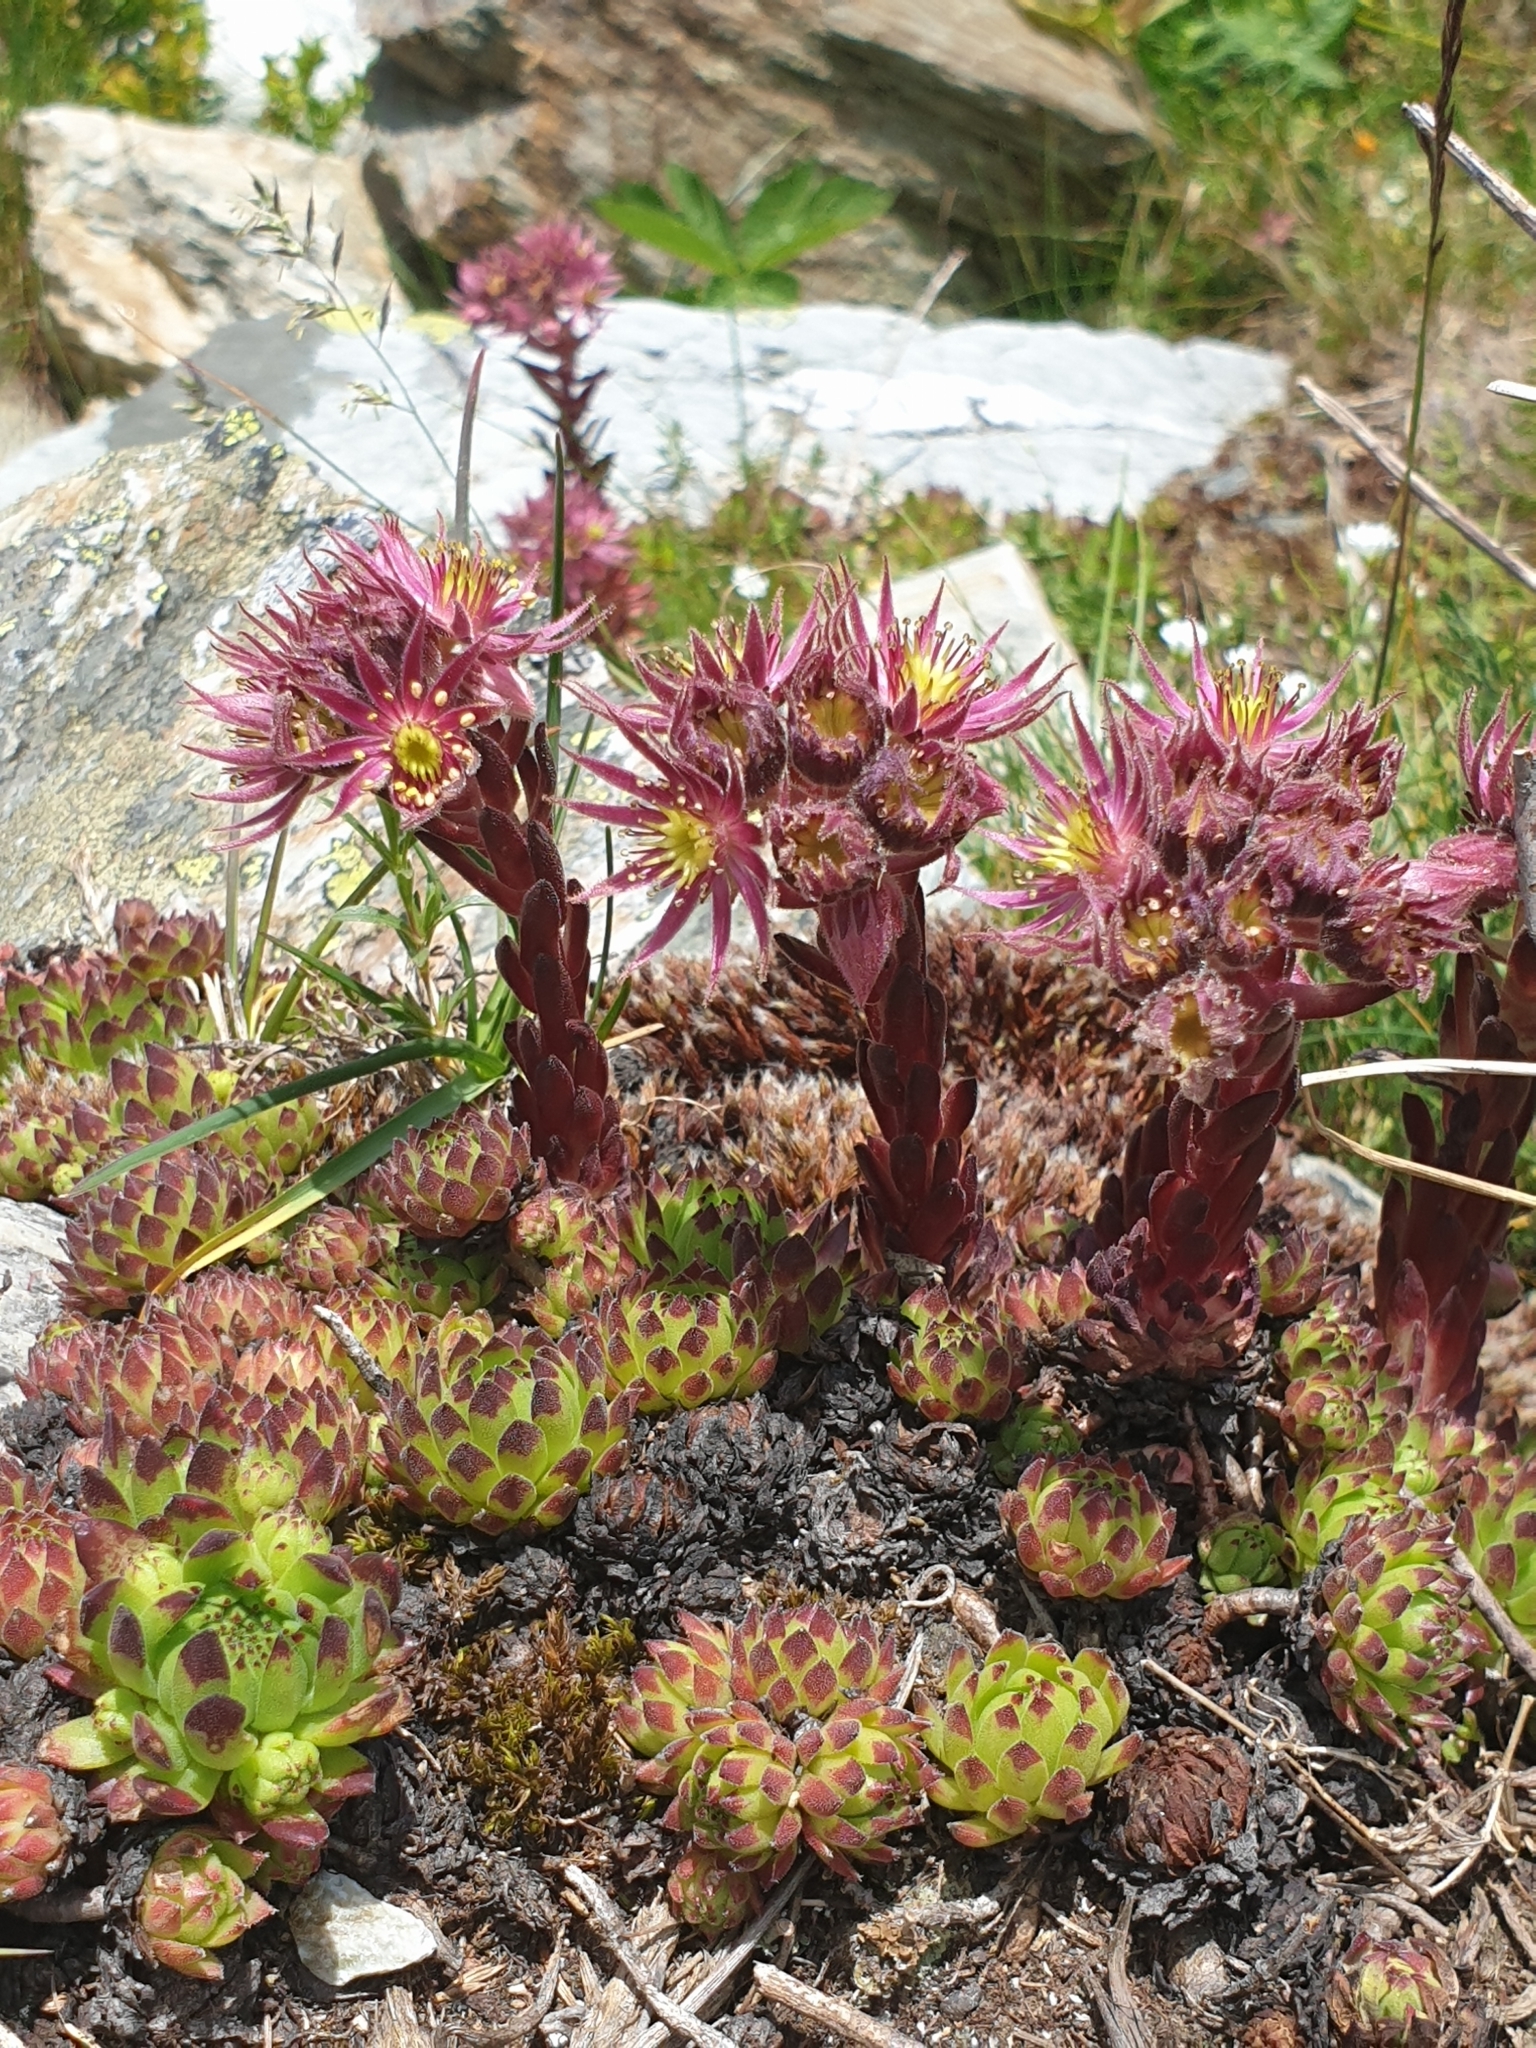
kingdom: Plantae
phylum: Tracheophyta
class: Magnoliopsida
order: Saxifragales
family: Crassulaceae
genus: Sempervivum
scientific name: Sempervivum montanum
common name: Mountain house-leek
